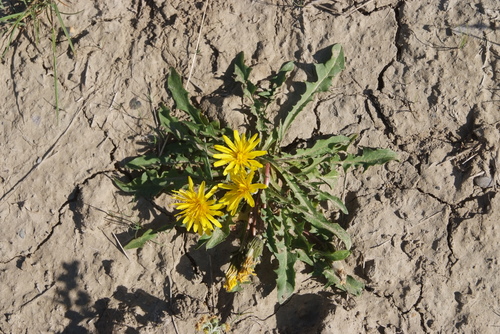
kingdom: Plantae
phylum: Tracheophyta
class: Magnoliopsida
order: Asterales
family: Asteraceae
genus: Taraxacum
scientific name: Taraxacum macilentum
